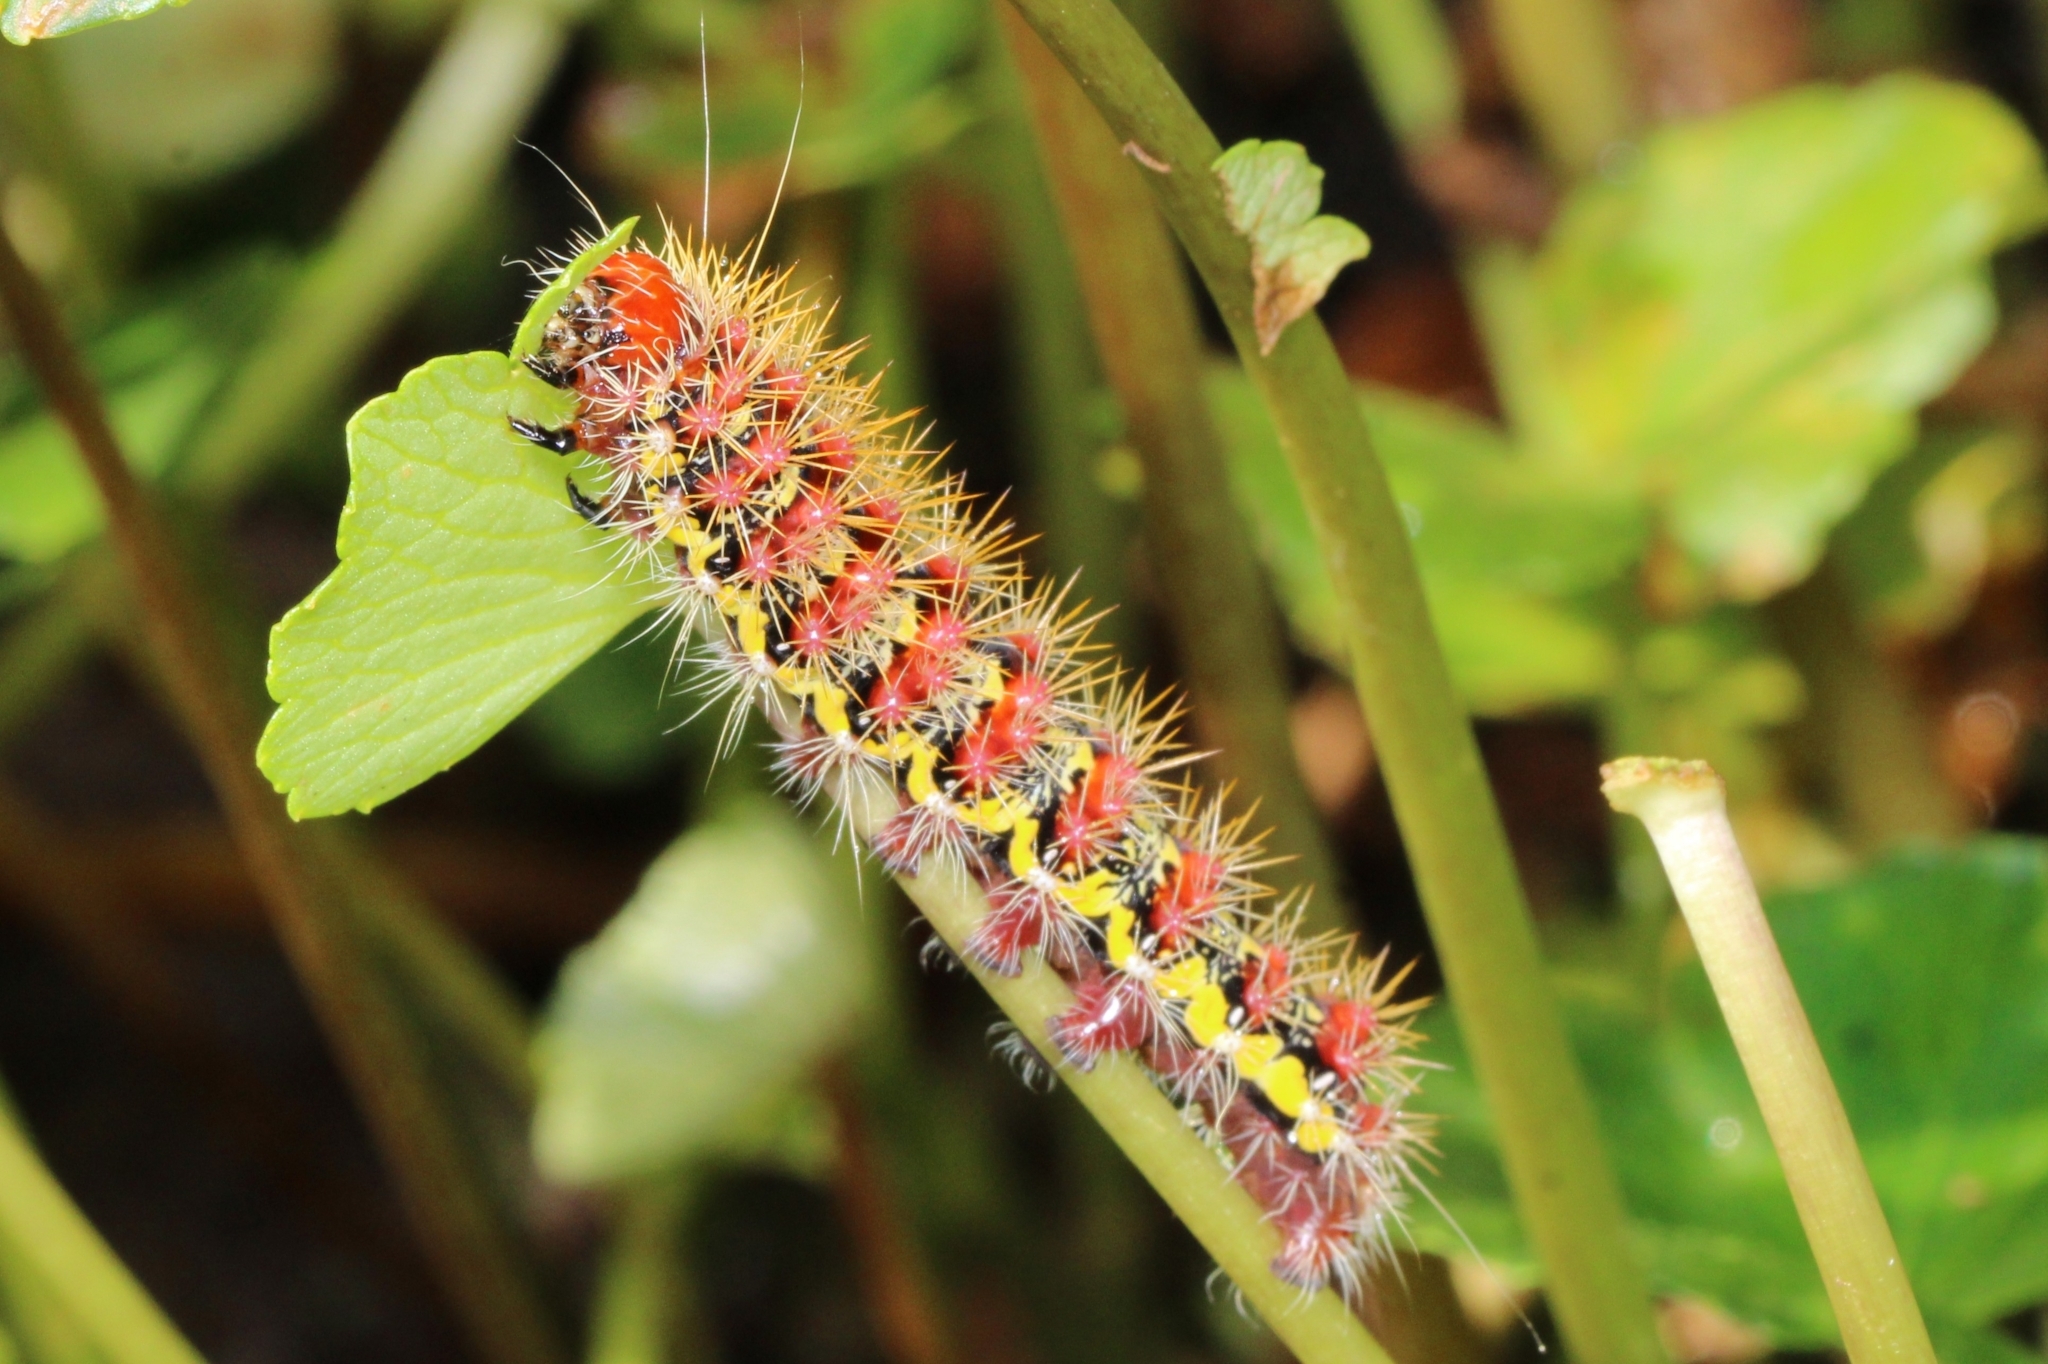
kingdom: Animalia
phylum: Arthropoda
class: Insecta
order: Lepidoptera
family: Noctuidae
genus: Acronicta
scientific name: Acronicta oblinita
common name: Smeared dagger
